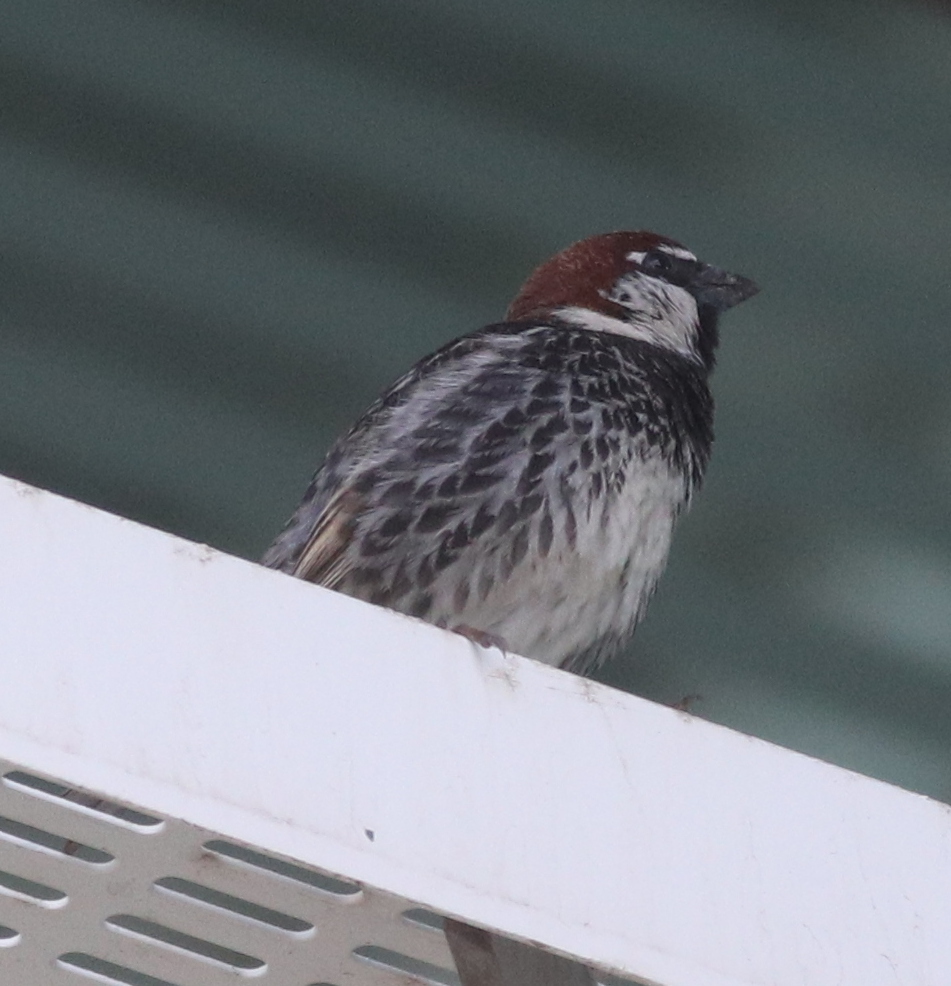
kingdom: Animalia
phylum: Chordata
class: Aves
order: Passeriformes
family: Passeridae
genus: Passer
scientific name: Passer hispaniolensis
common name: Spanish sparrow
